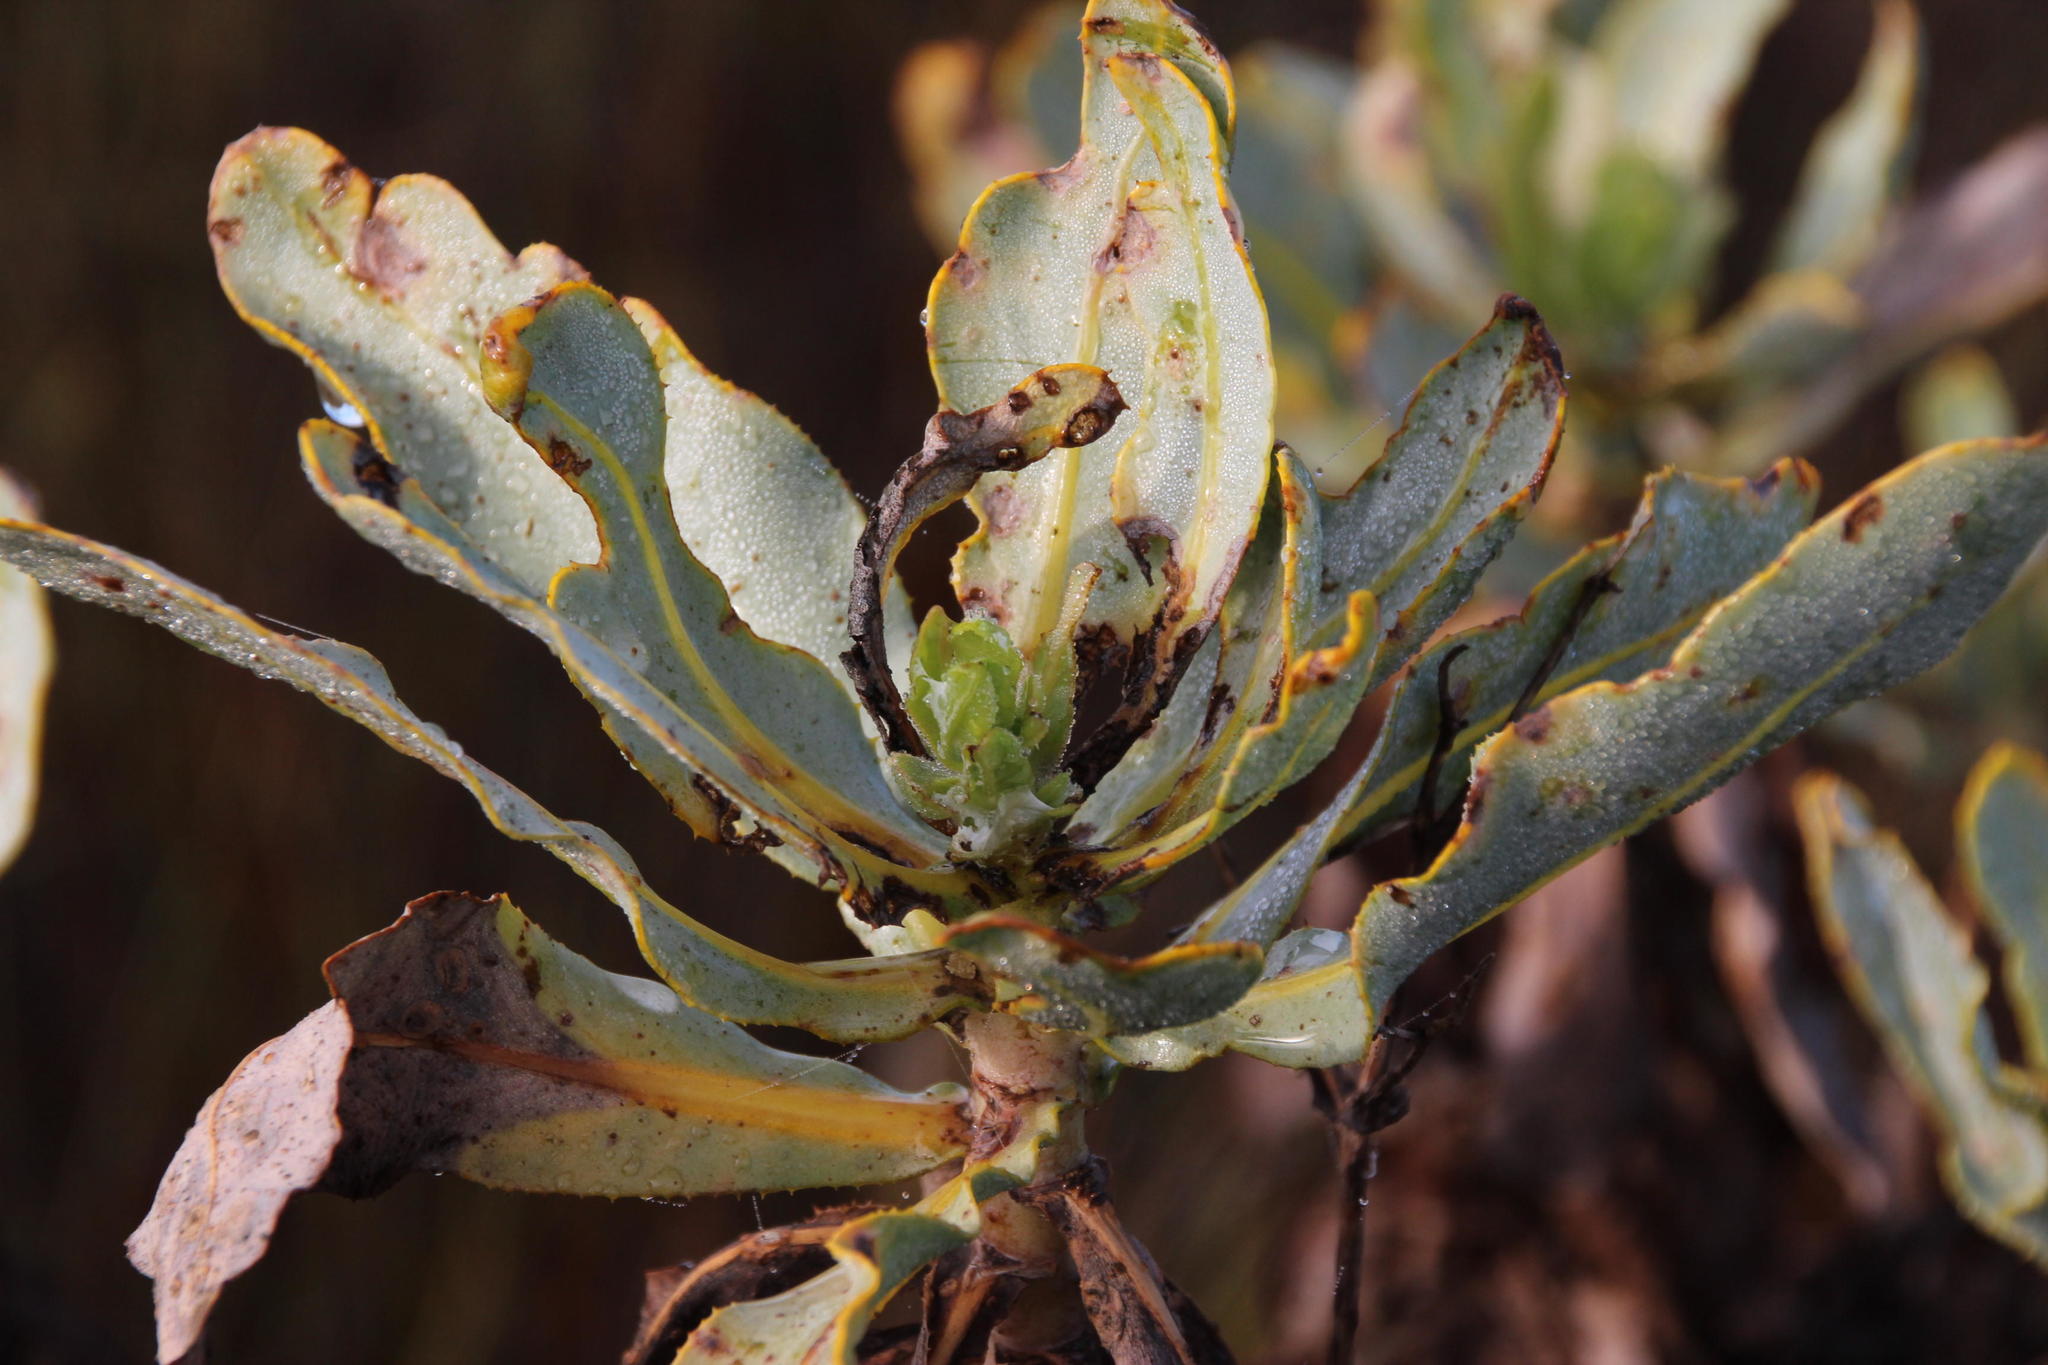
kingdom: Plantae
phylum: Tracheophyta
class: Magnoliopsida
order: Asterales
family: Asteraceae
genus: Othonna
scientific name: Othonna parviflora
